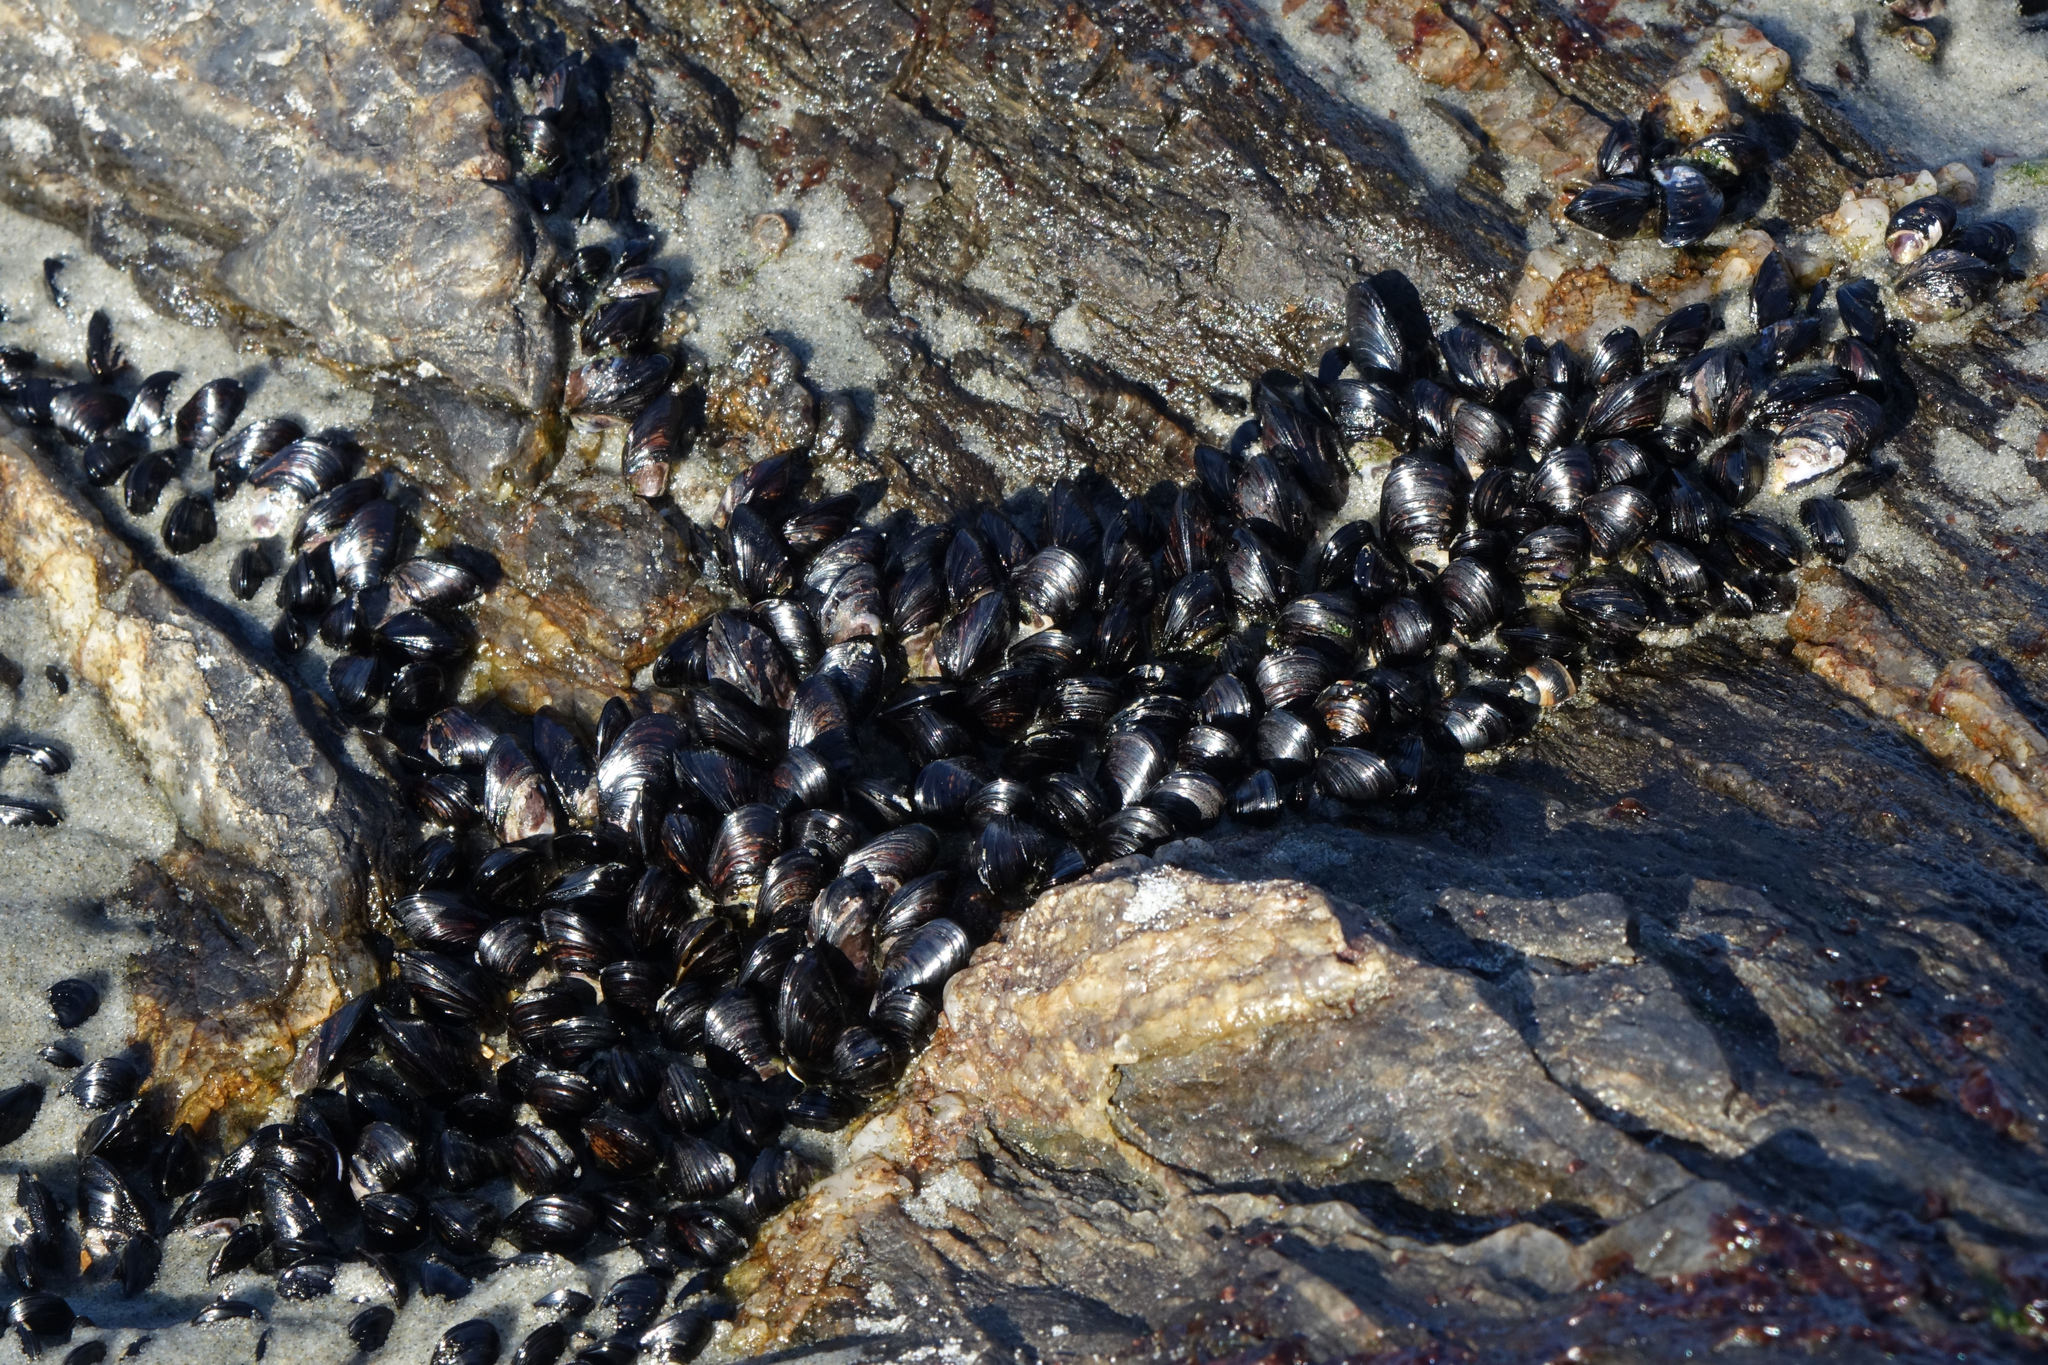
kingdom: Animalia
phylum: Mollusca
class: Bivalvia
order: Mytilida
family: Mytilidae
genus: Xenostrobus
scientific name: Xenostrobus neozelanicus
